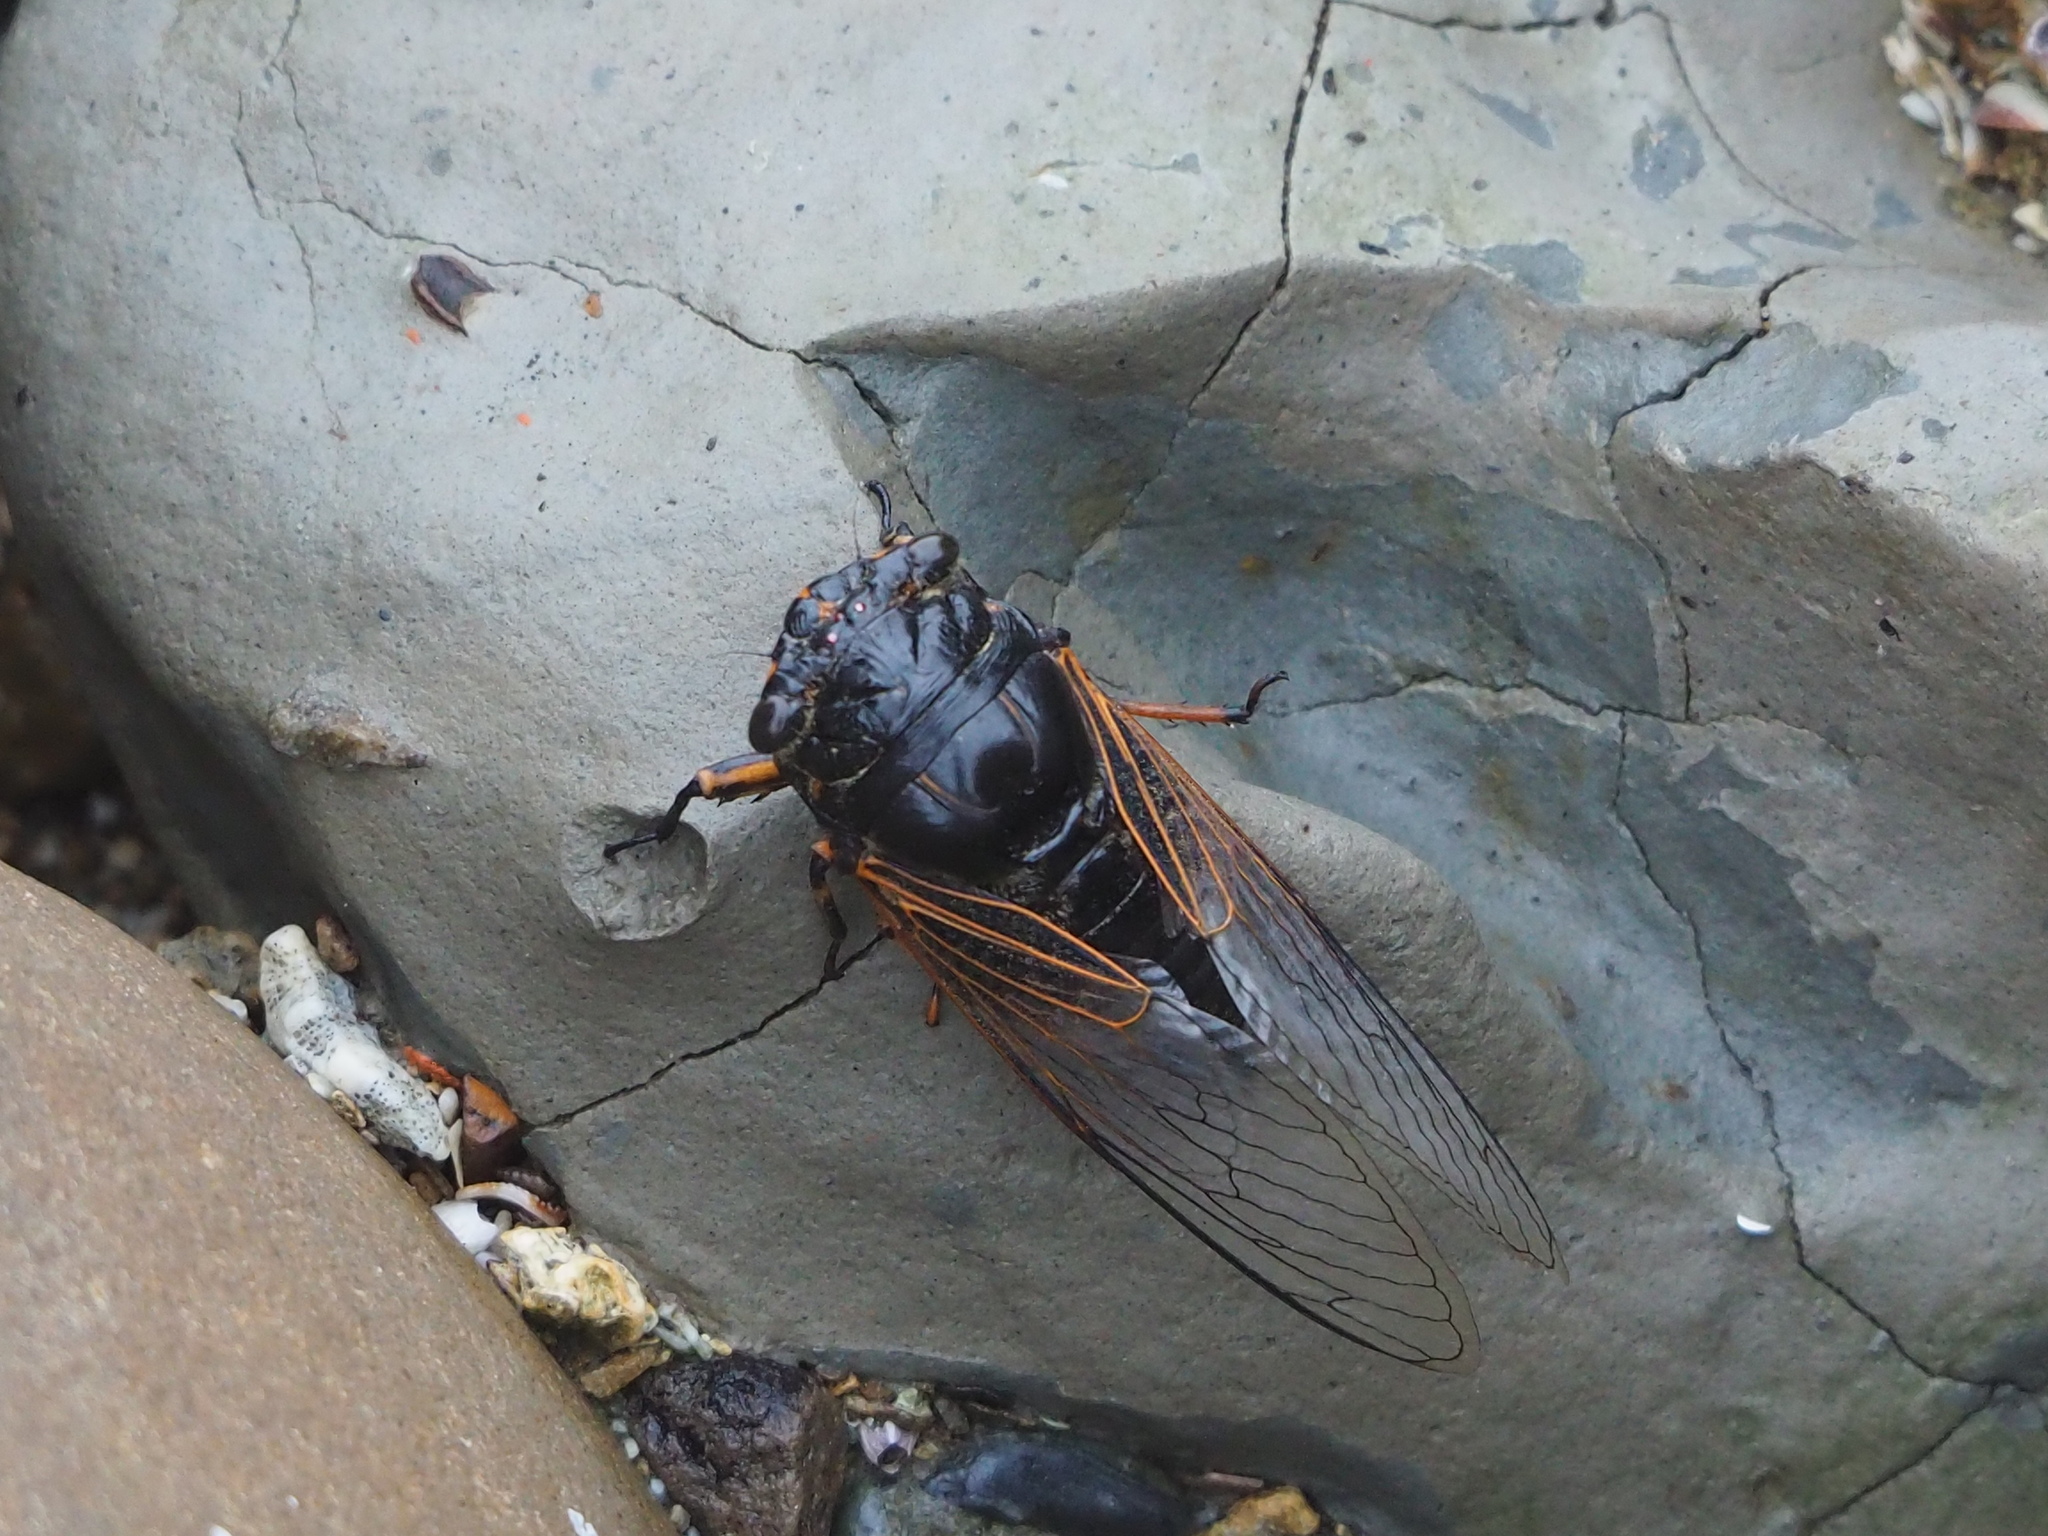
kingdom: Animalia
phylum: Arthropoda
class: Insecta
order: Hemiptera
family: Cicadidae
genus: Cryptotympana
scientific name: Cryptotympana atrata
